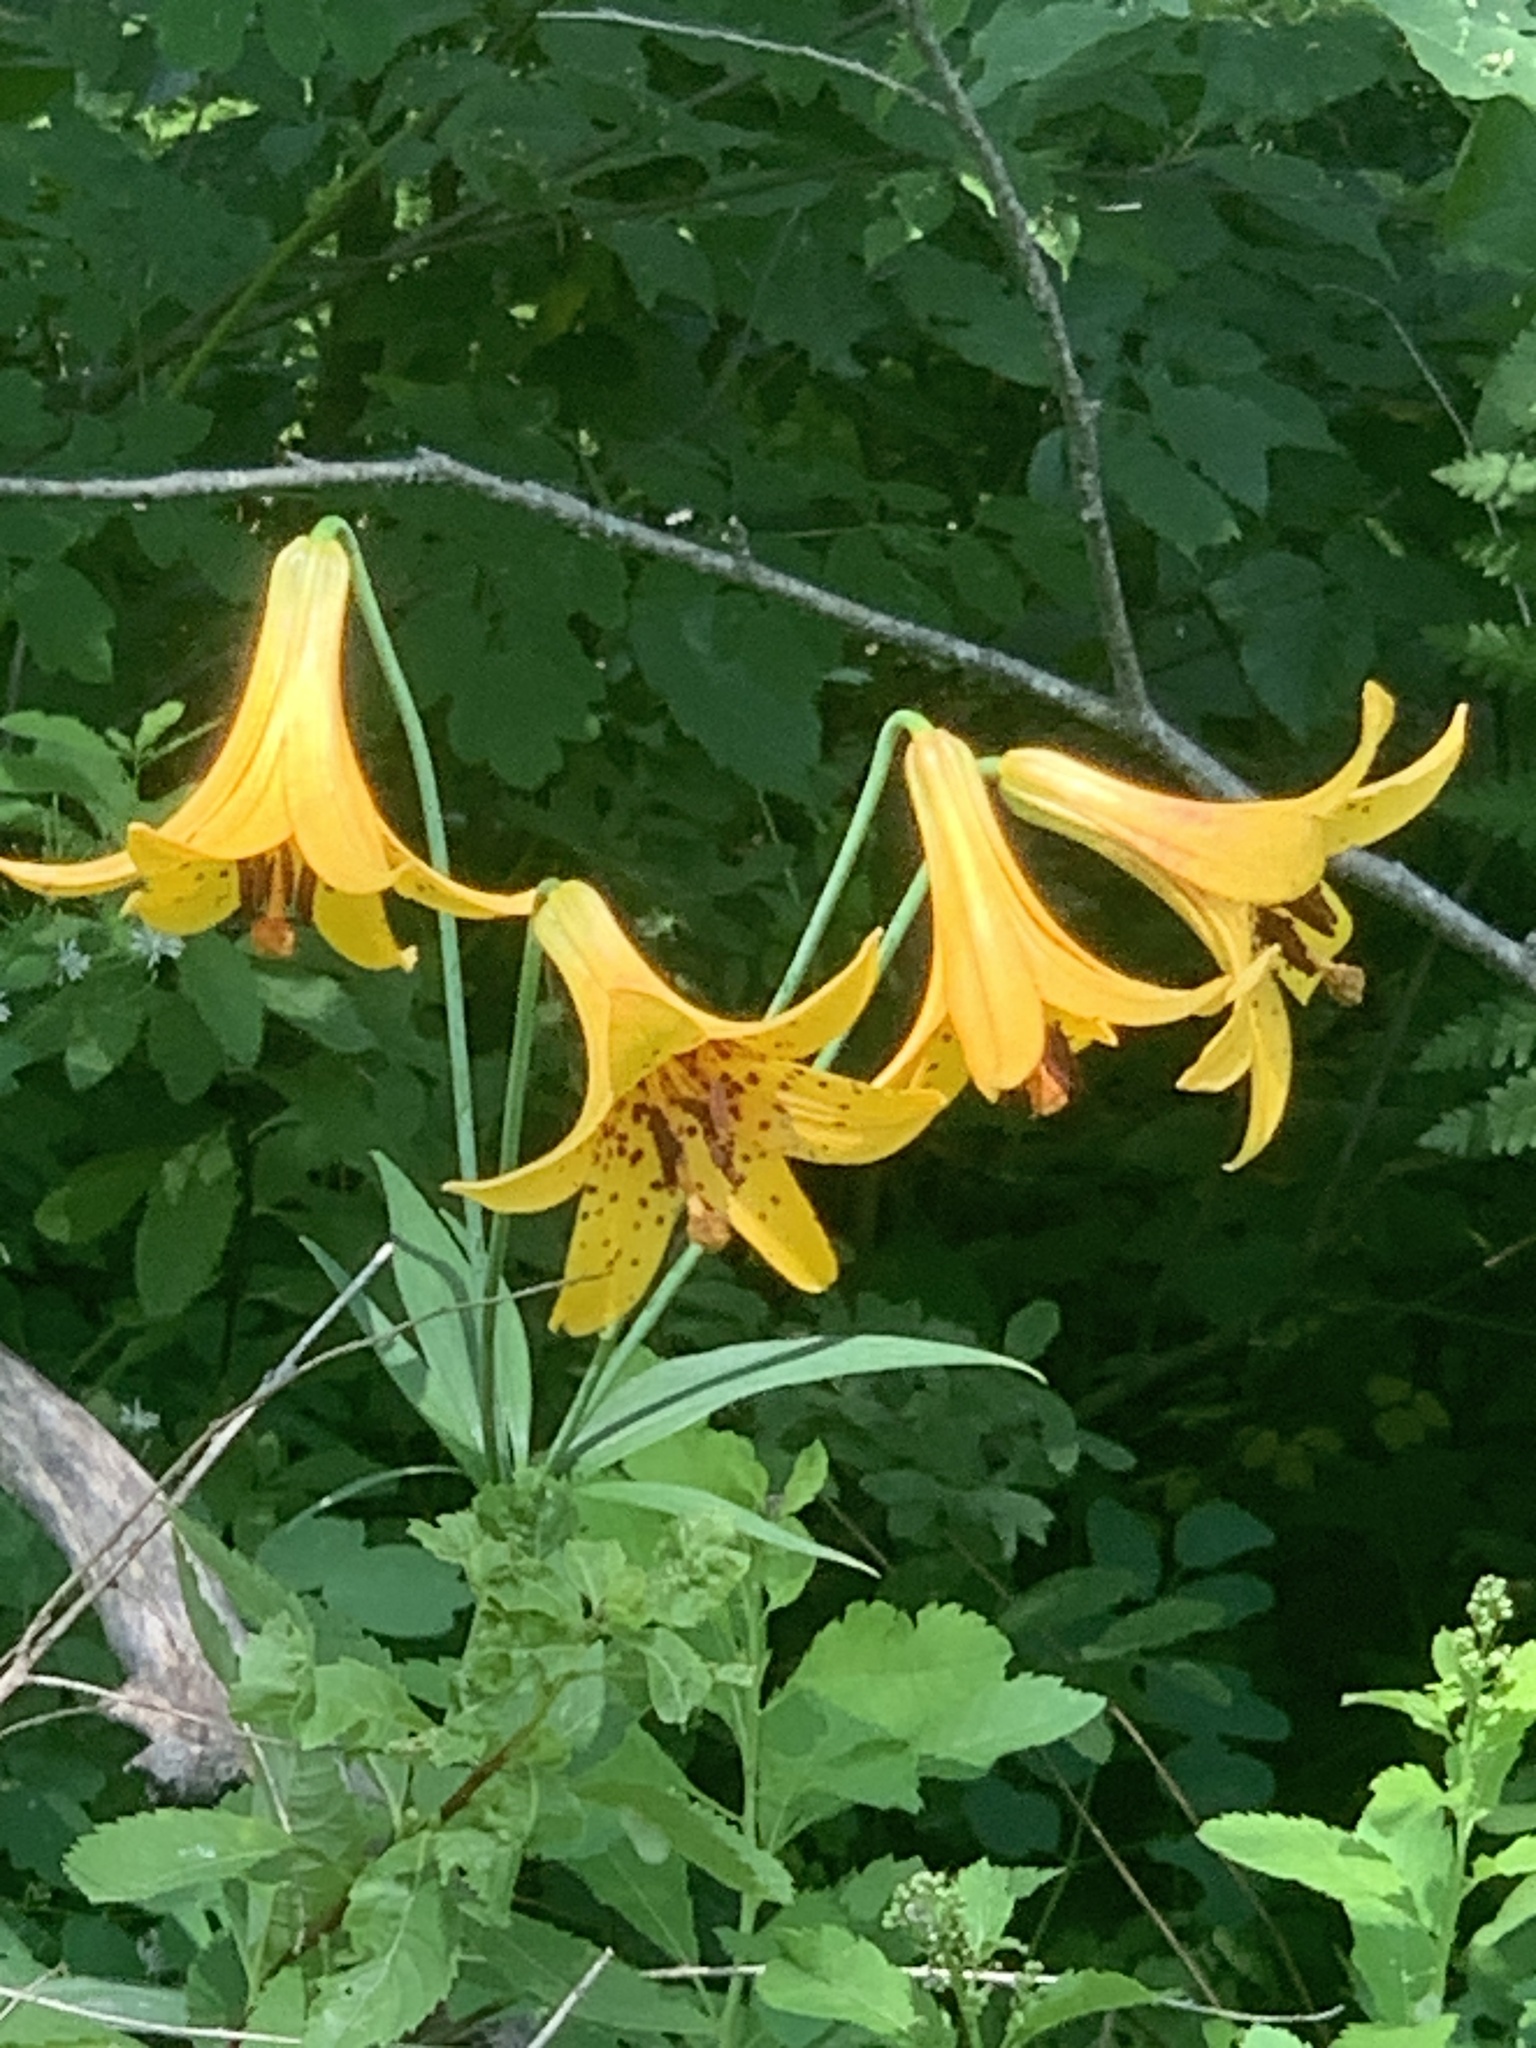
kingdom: Plantae
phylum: Tracheophyta
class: Liliopsida
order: Liliales
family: Liliaceae
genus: Lilium
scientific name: Lilium canadense
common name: Canada lily
